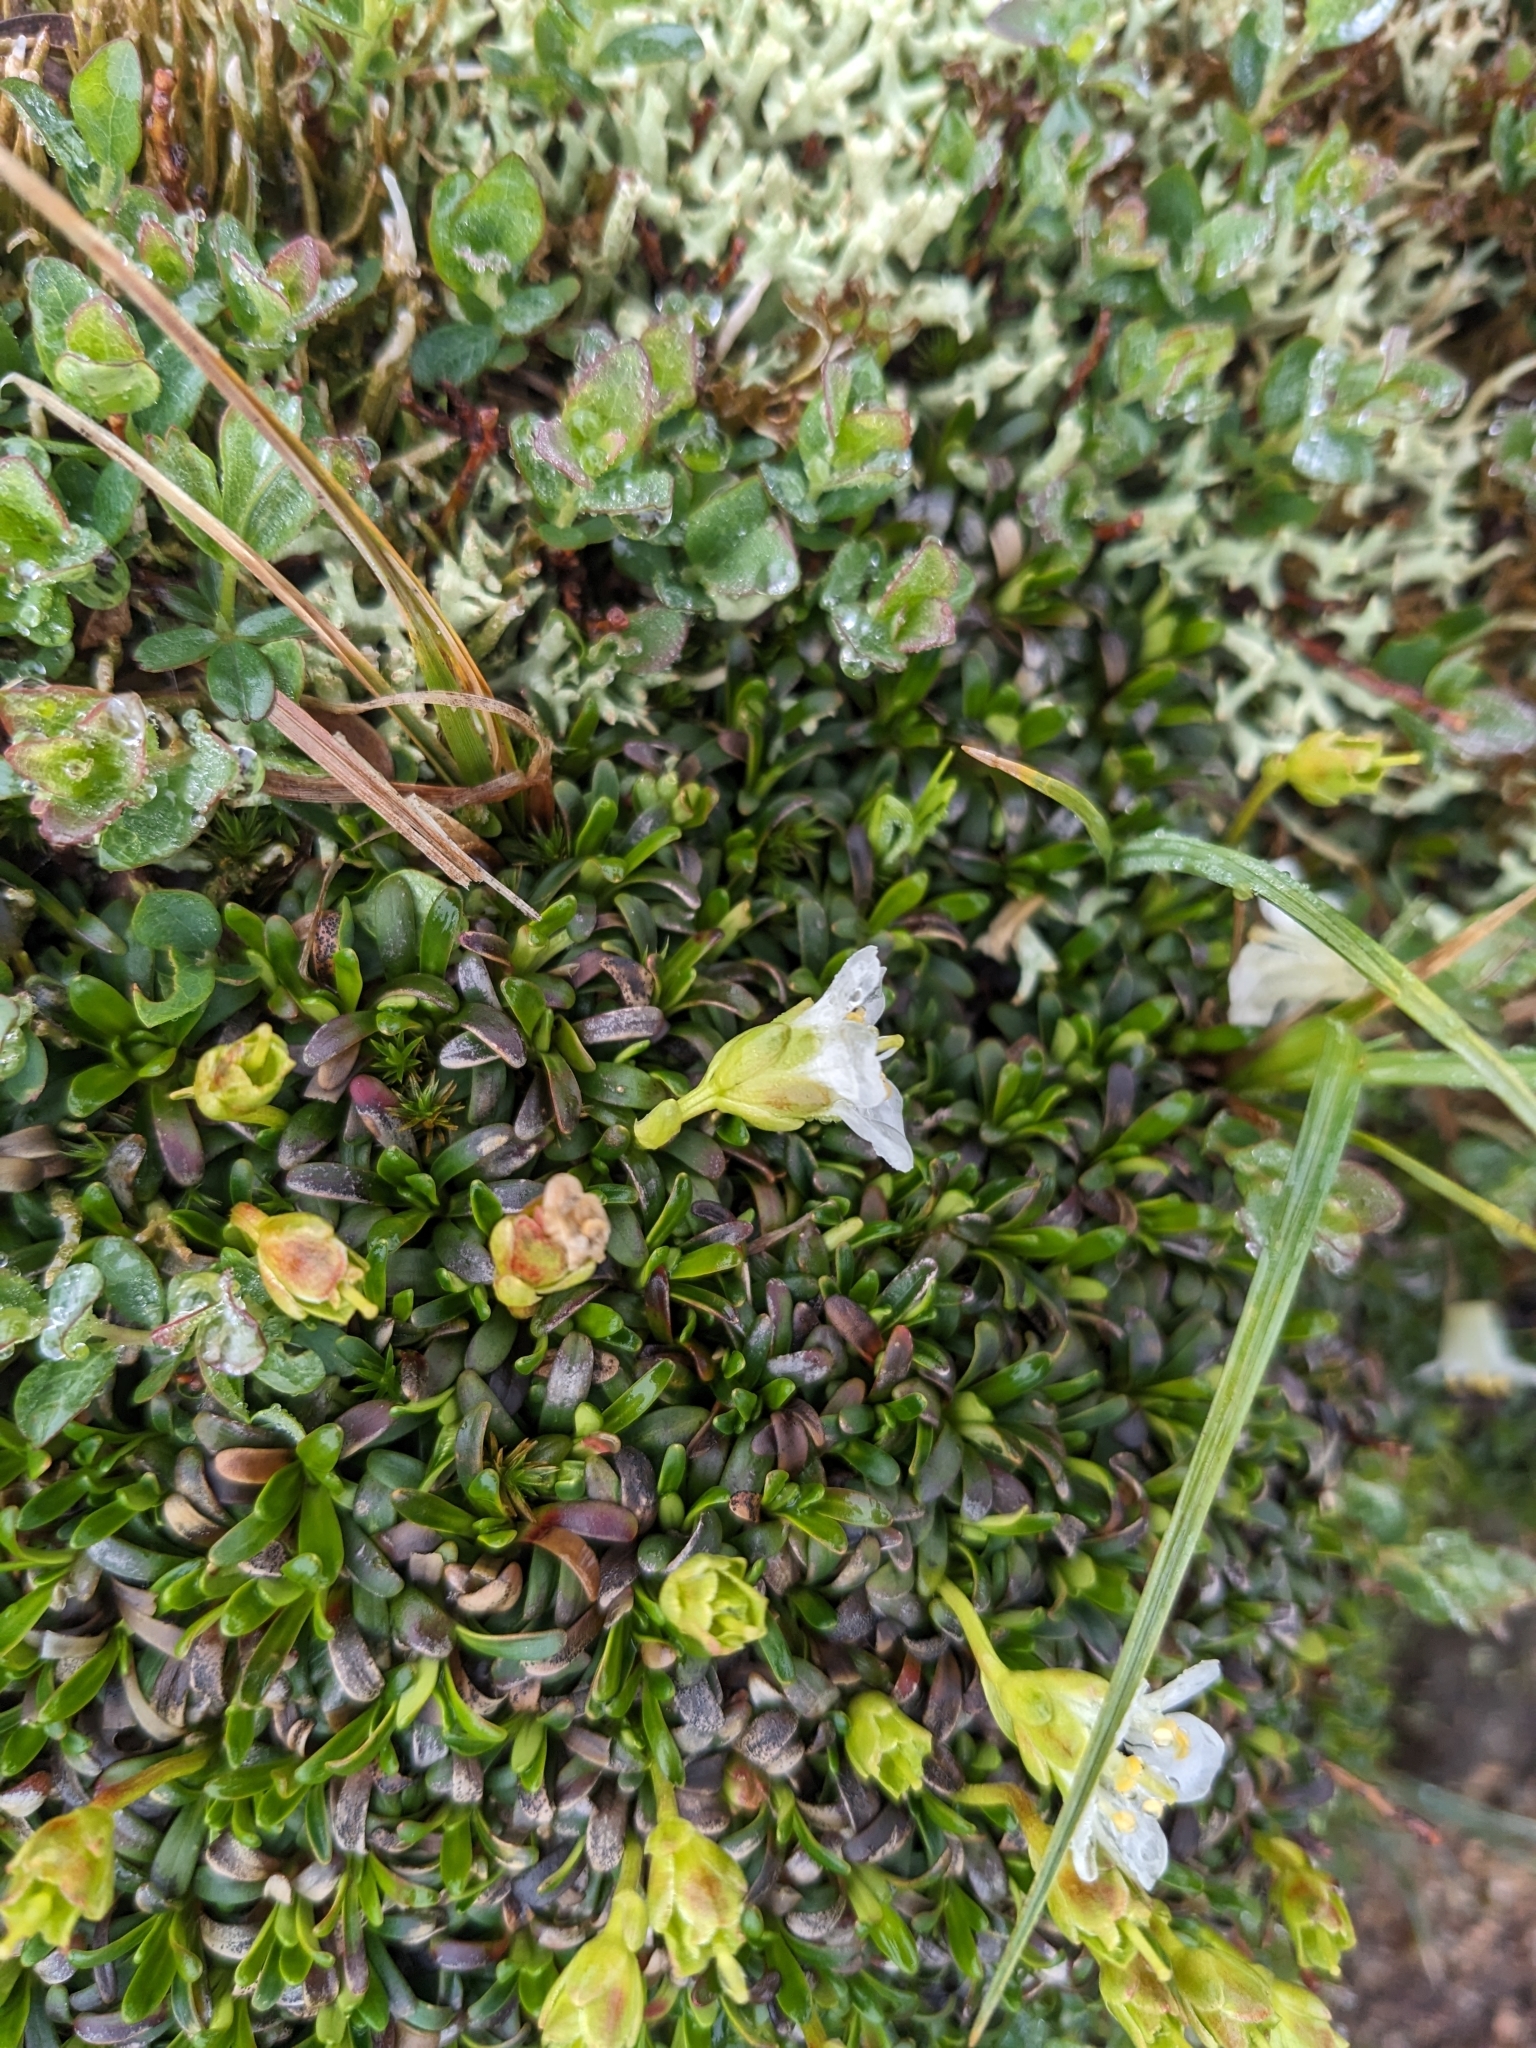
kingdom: Plantae
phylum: Tracheophyta
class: Magnoliopsida
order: Ericales
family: Diapensiaceae
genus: Diapensia
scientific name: Diapensia lapponica
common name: Diapensia
